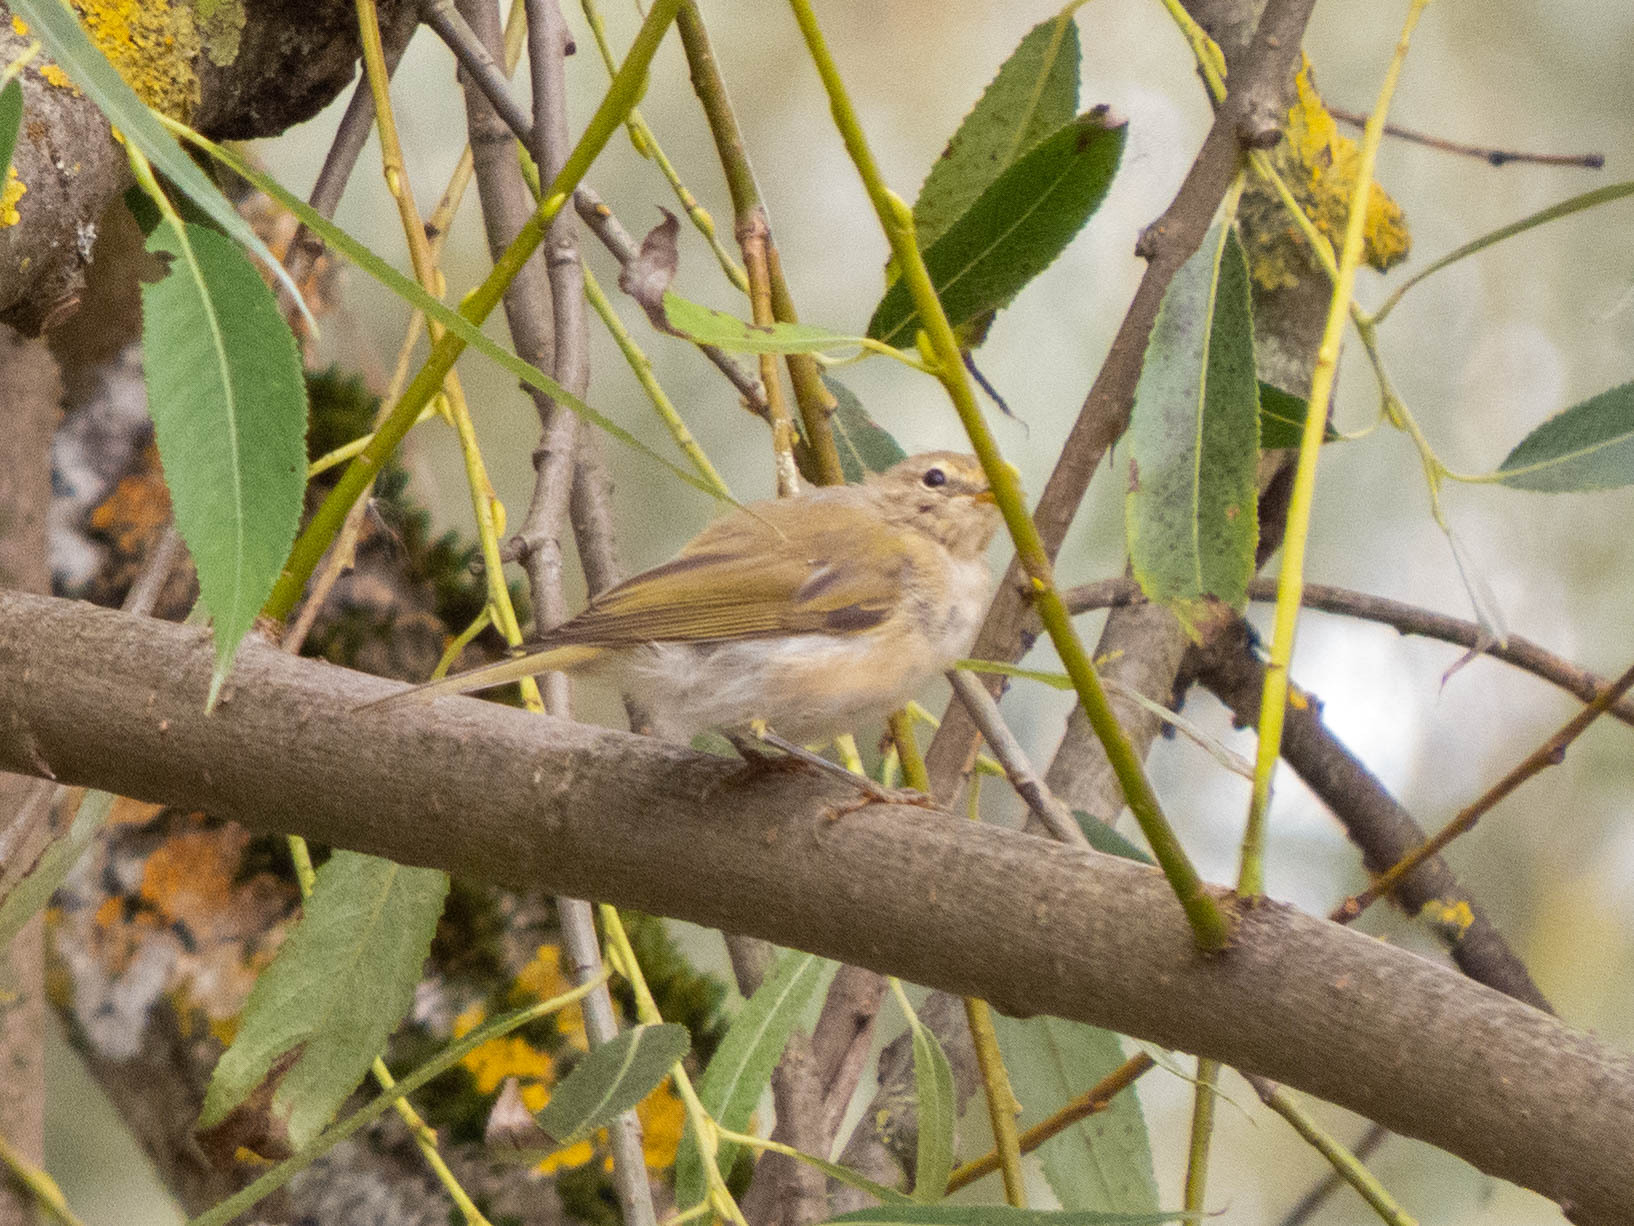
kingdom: Animalia
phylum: Chordata
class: Aves
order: Passeriformes
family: Phylloscopidae
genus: Phylloscopus
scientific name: Phylloscopus collybita
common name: Common chiffchaff
